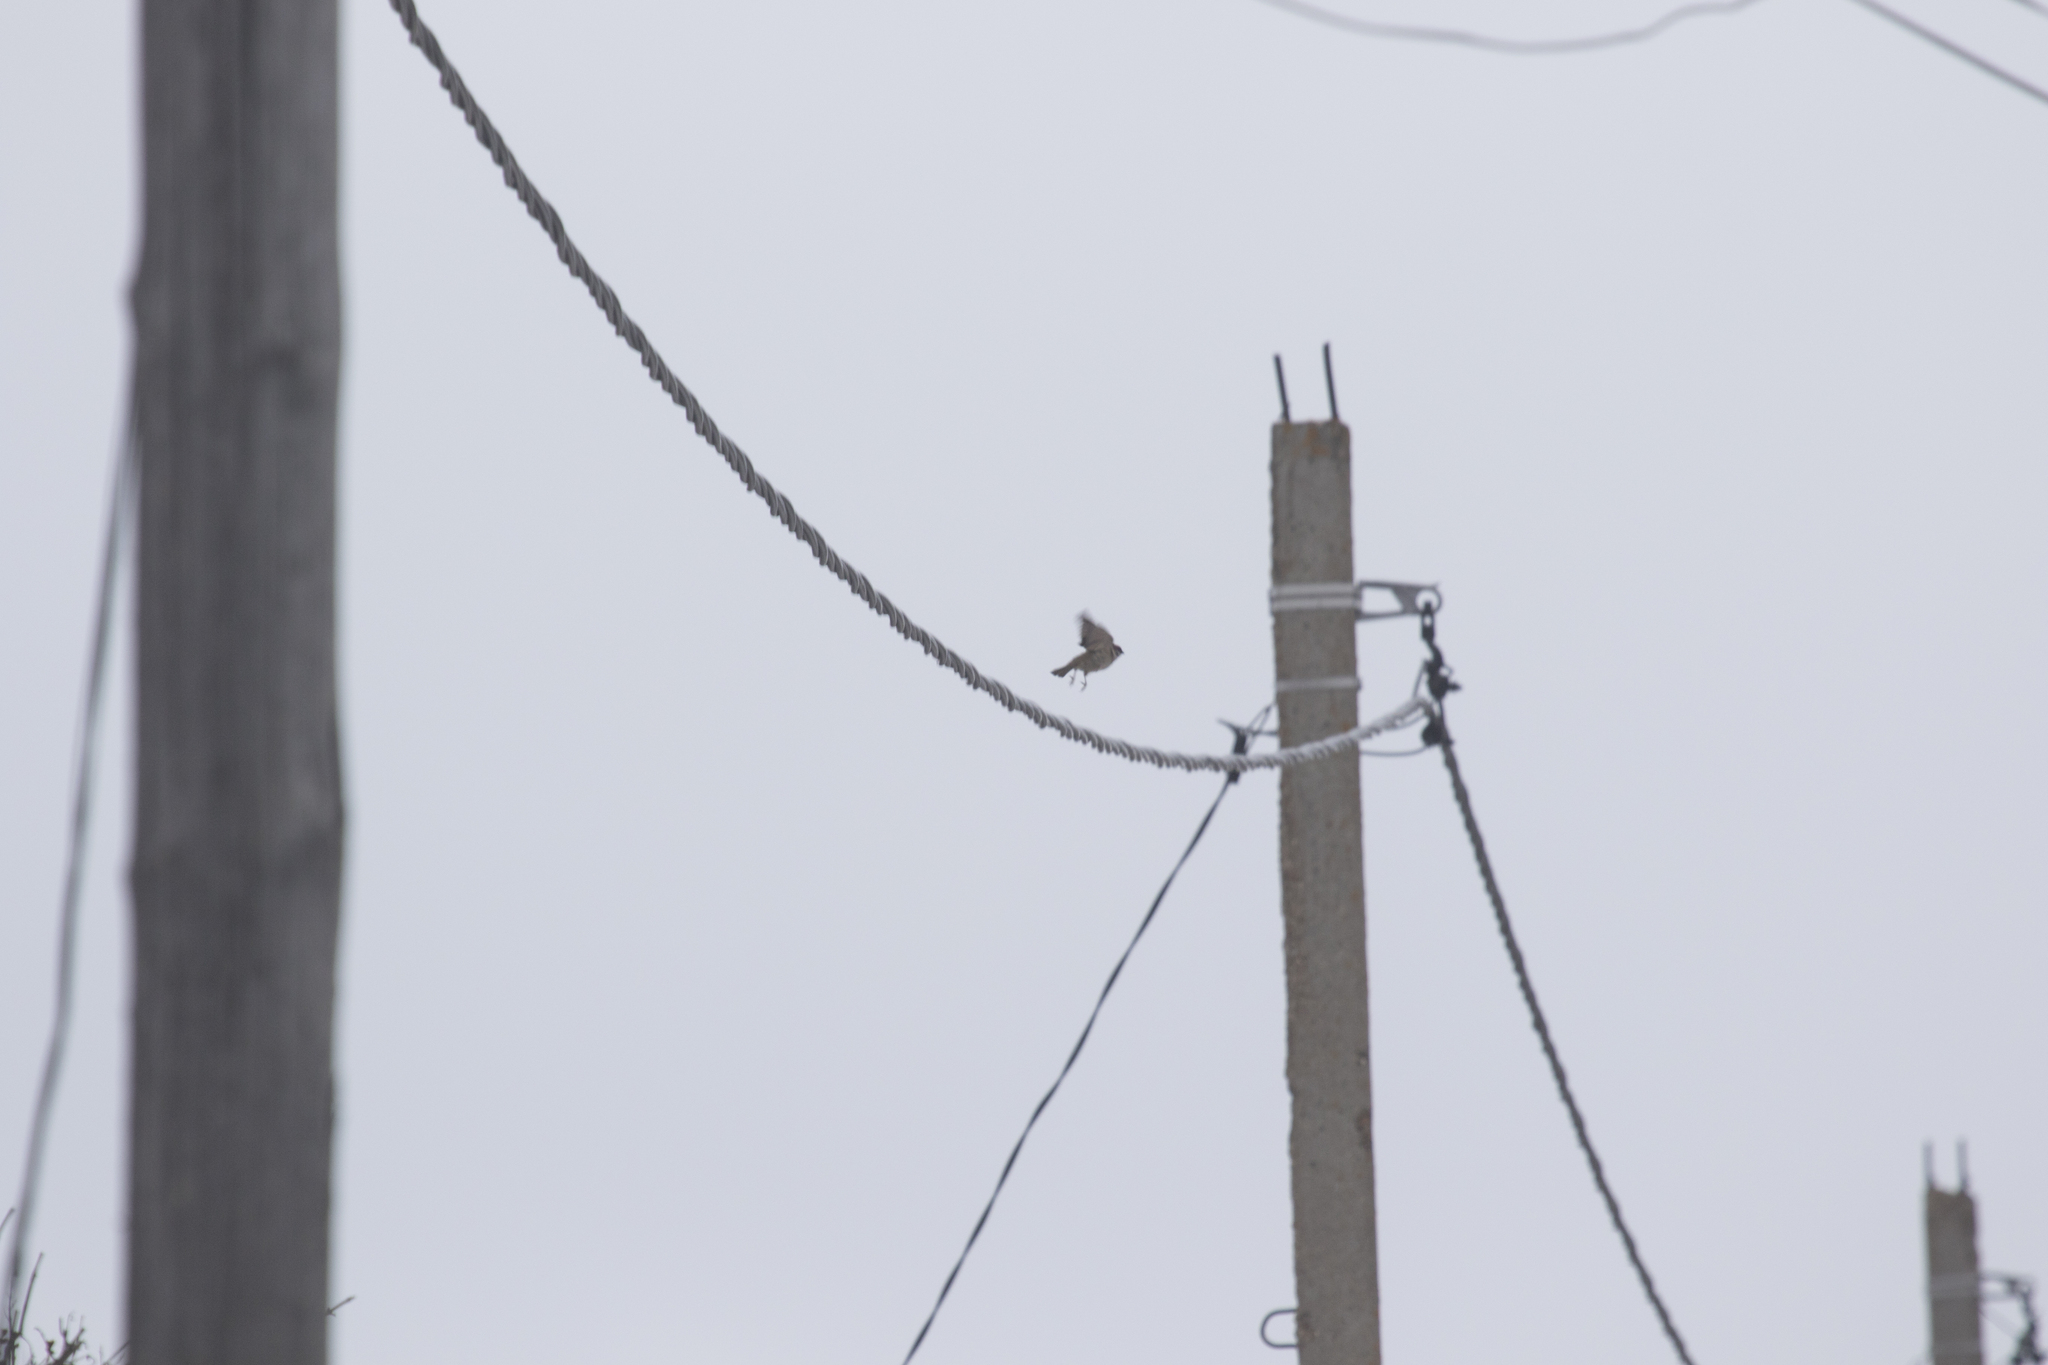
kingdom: Animalia
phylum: Chordata
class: Aves
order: Passeriformes
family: Passeridae
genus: Passer
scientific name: Passer montanus
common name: Eurasian tree sparrow
